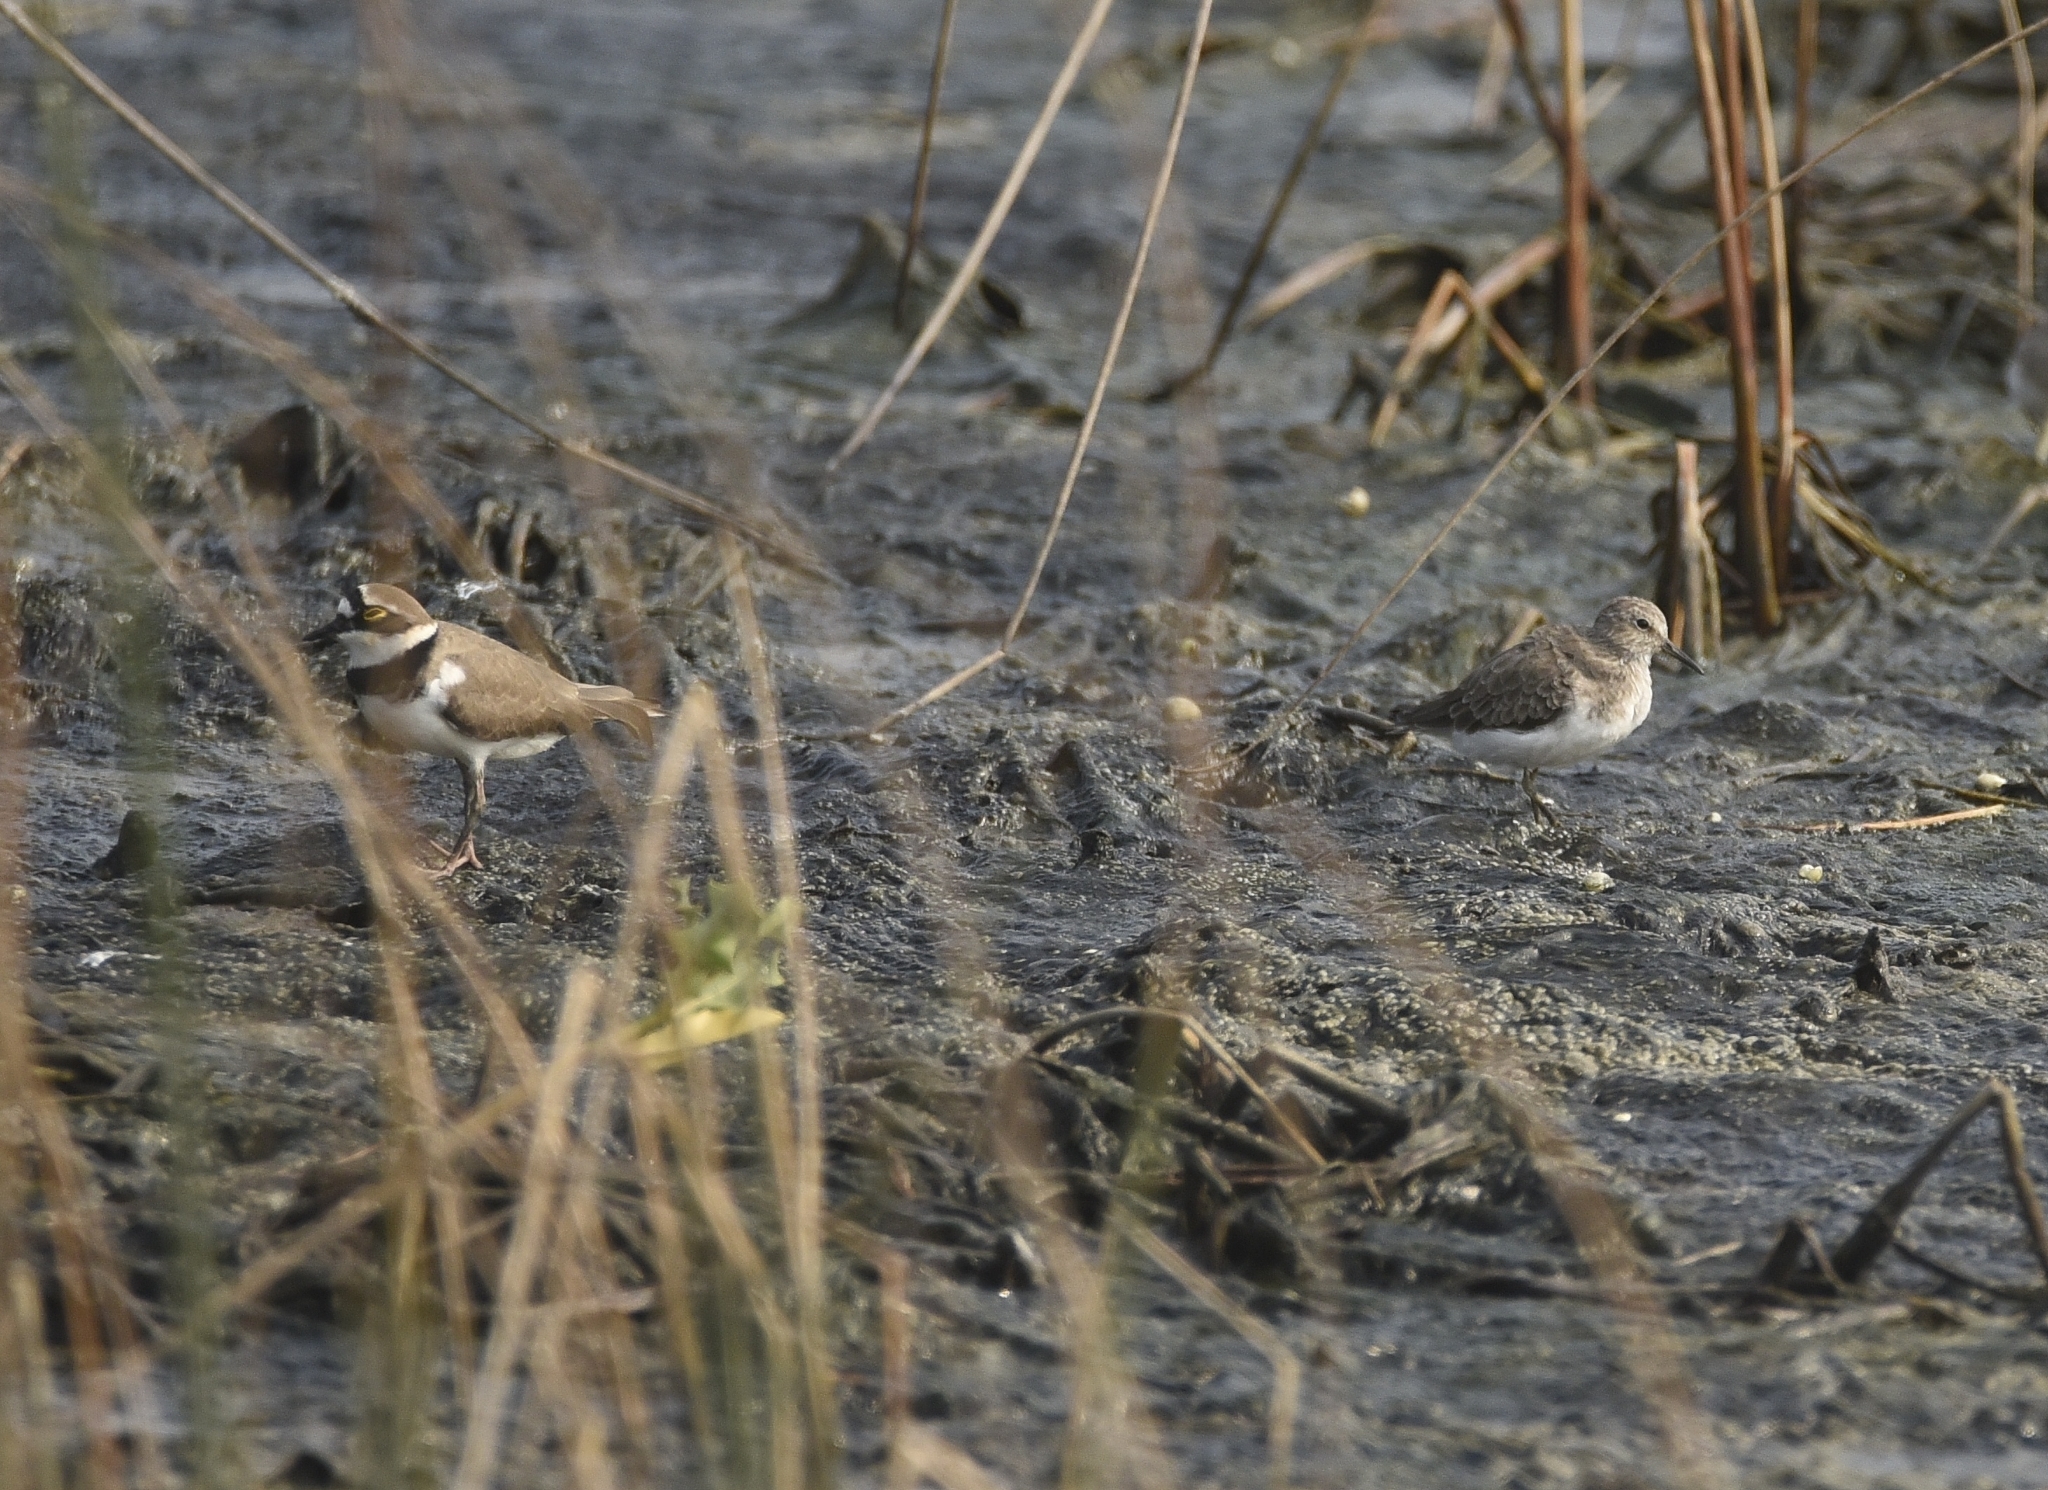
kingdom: Animalia
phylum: Chordata
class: Aves
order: Charadriiformes
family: Scolopacidae
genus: Calidris
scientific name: Calidris temminckii
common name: Temminck's stint
